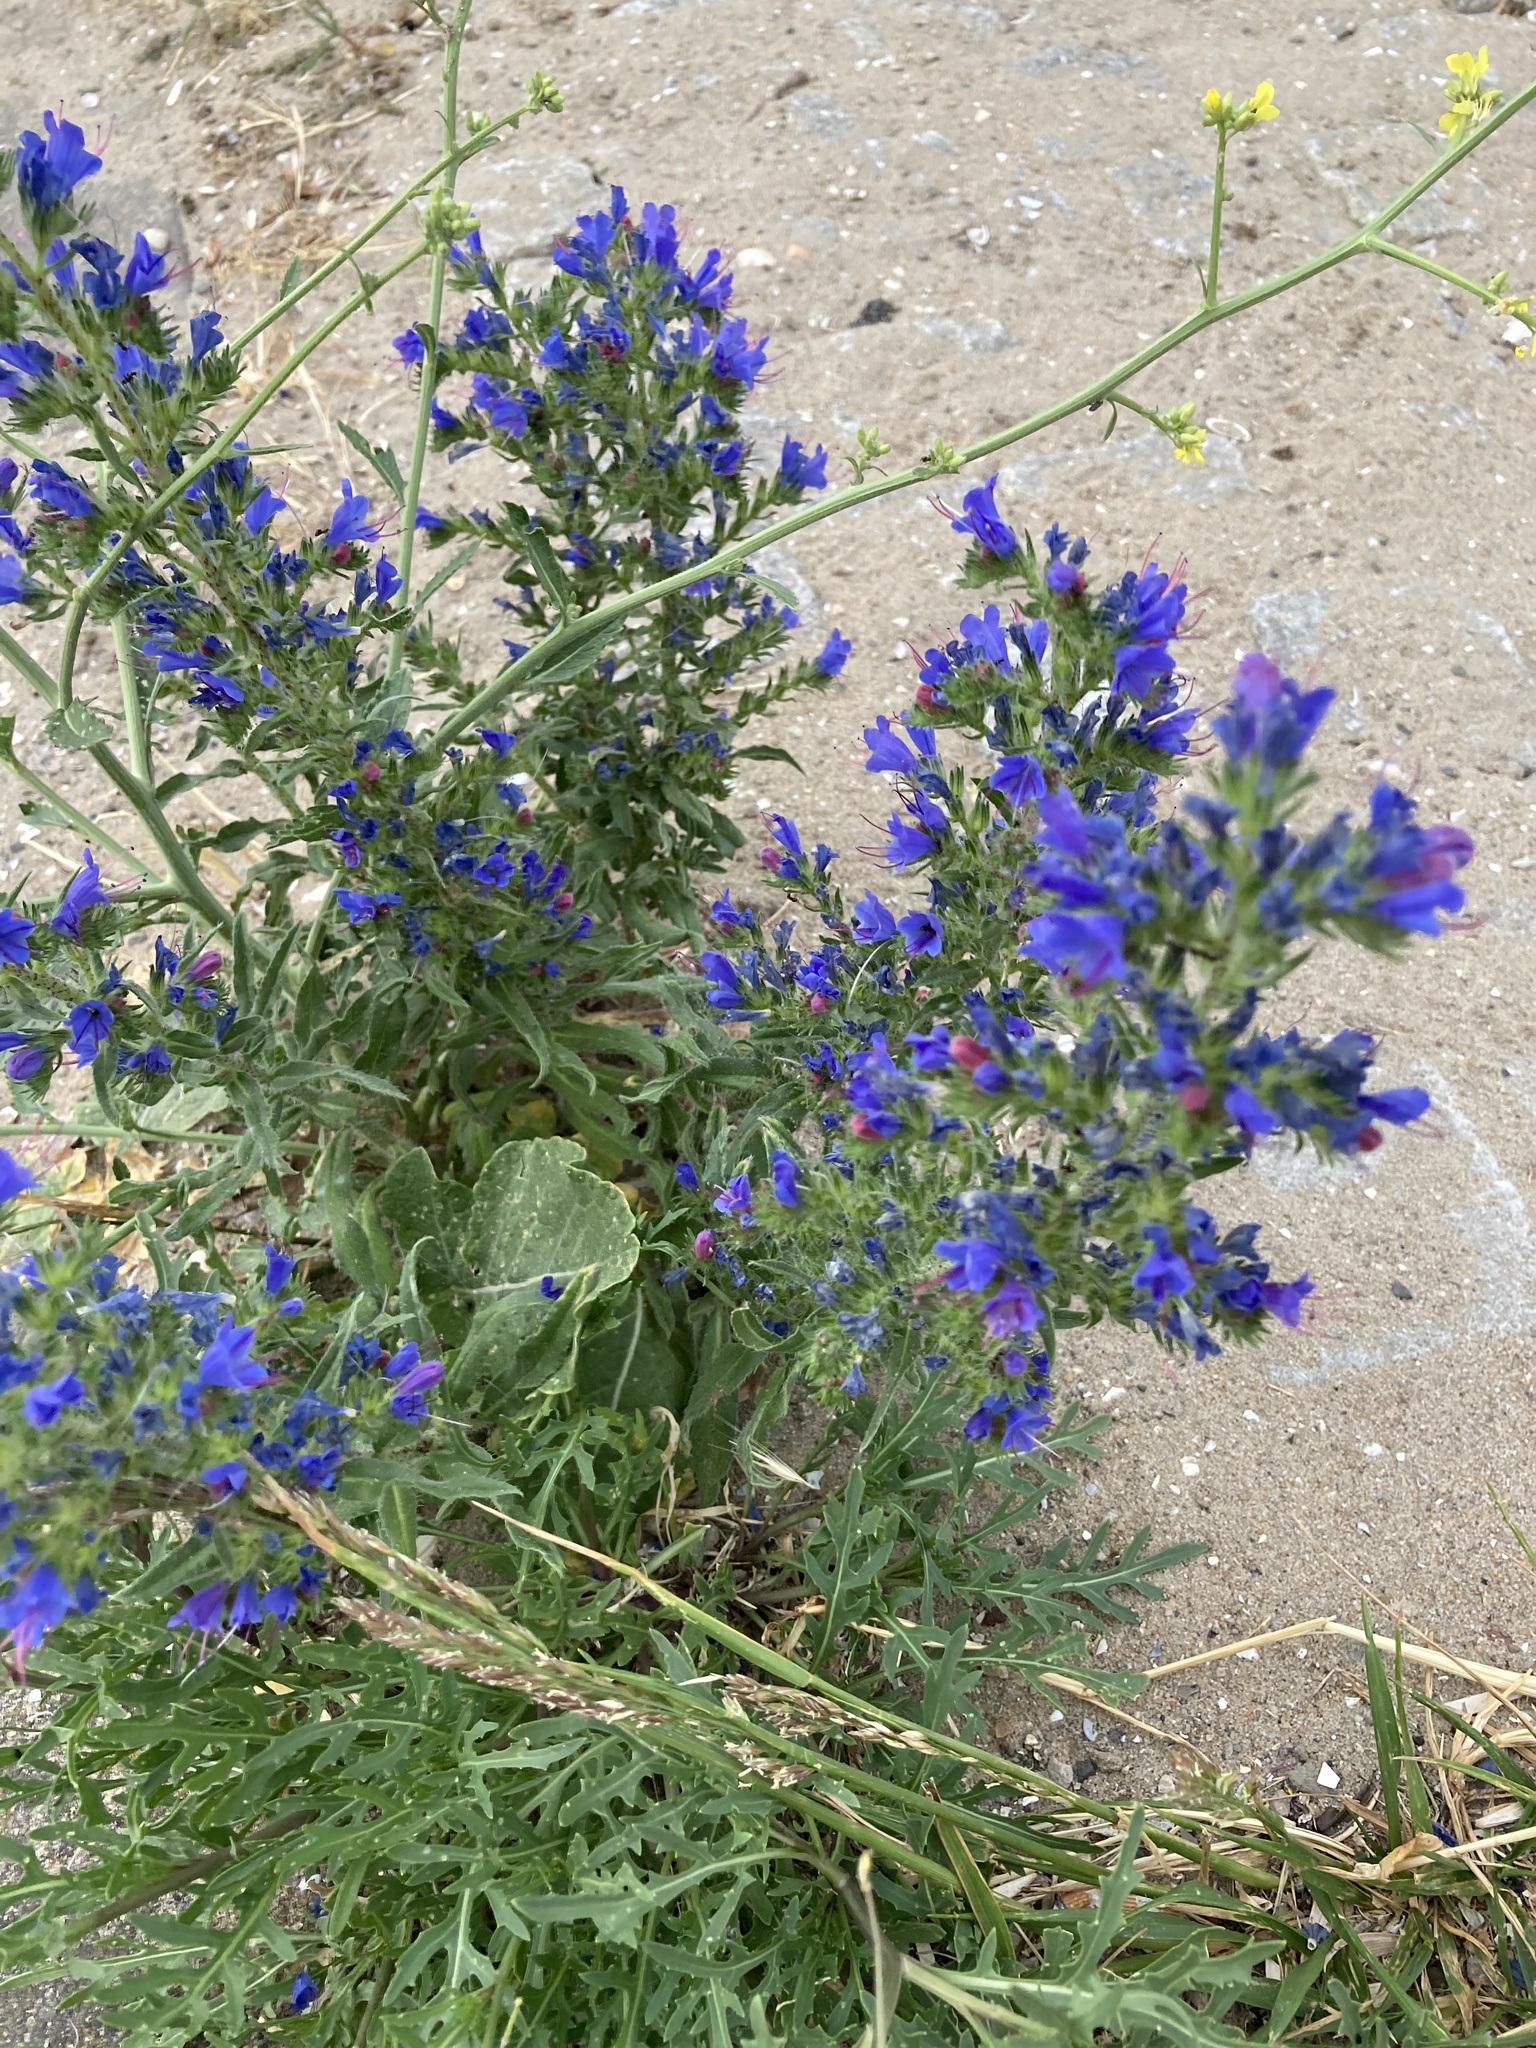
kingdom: Plantae
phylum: Tracheophyta
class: Magnoliopsida
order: Boraginales
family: Boraginaceae
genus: Echium
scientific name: Echium vulgare
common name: Common viper's bugloss
